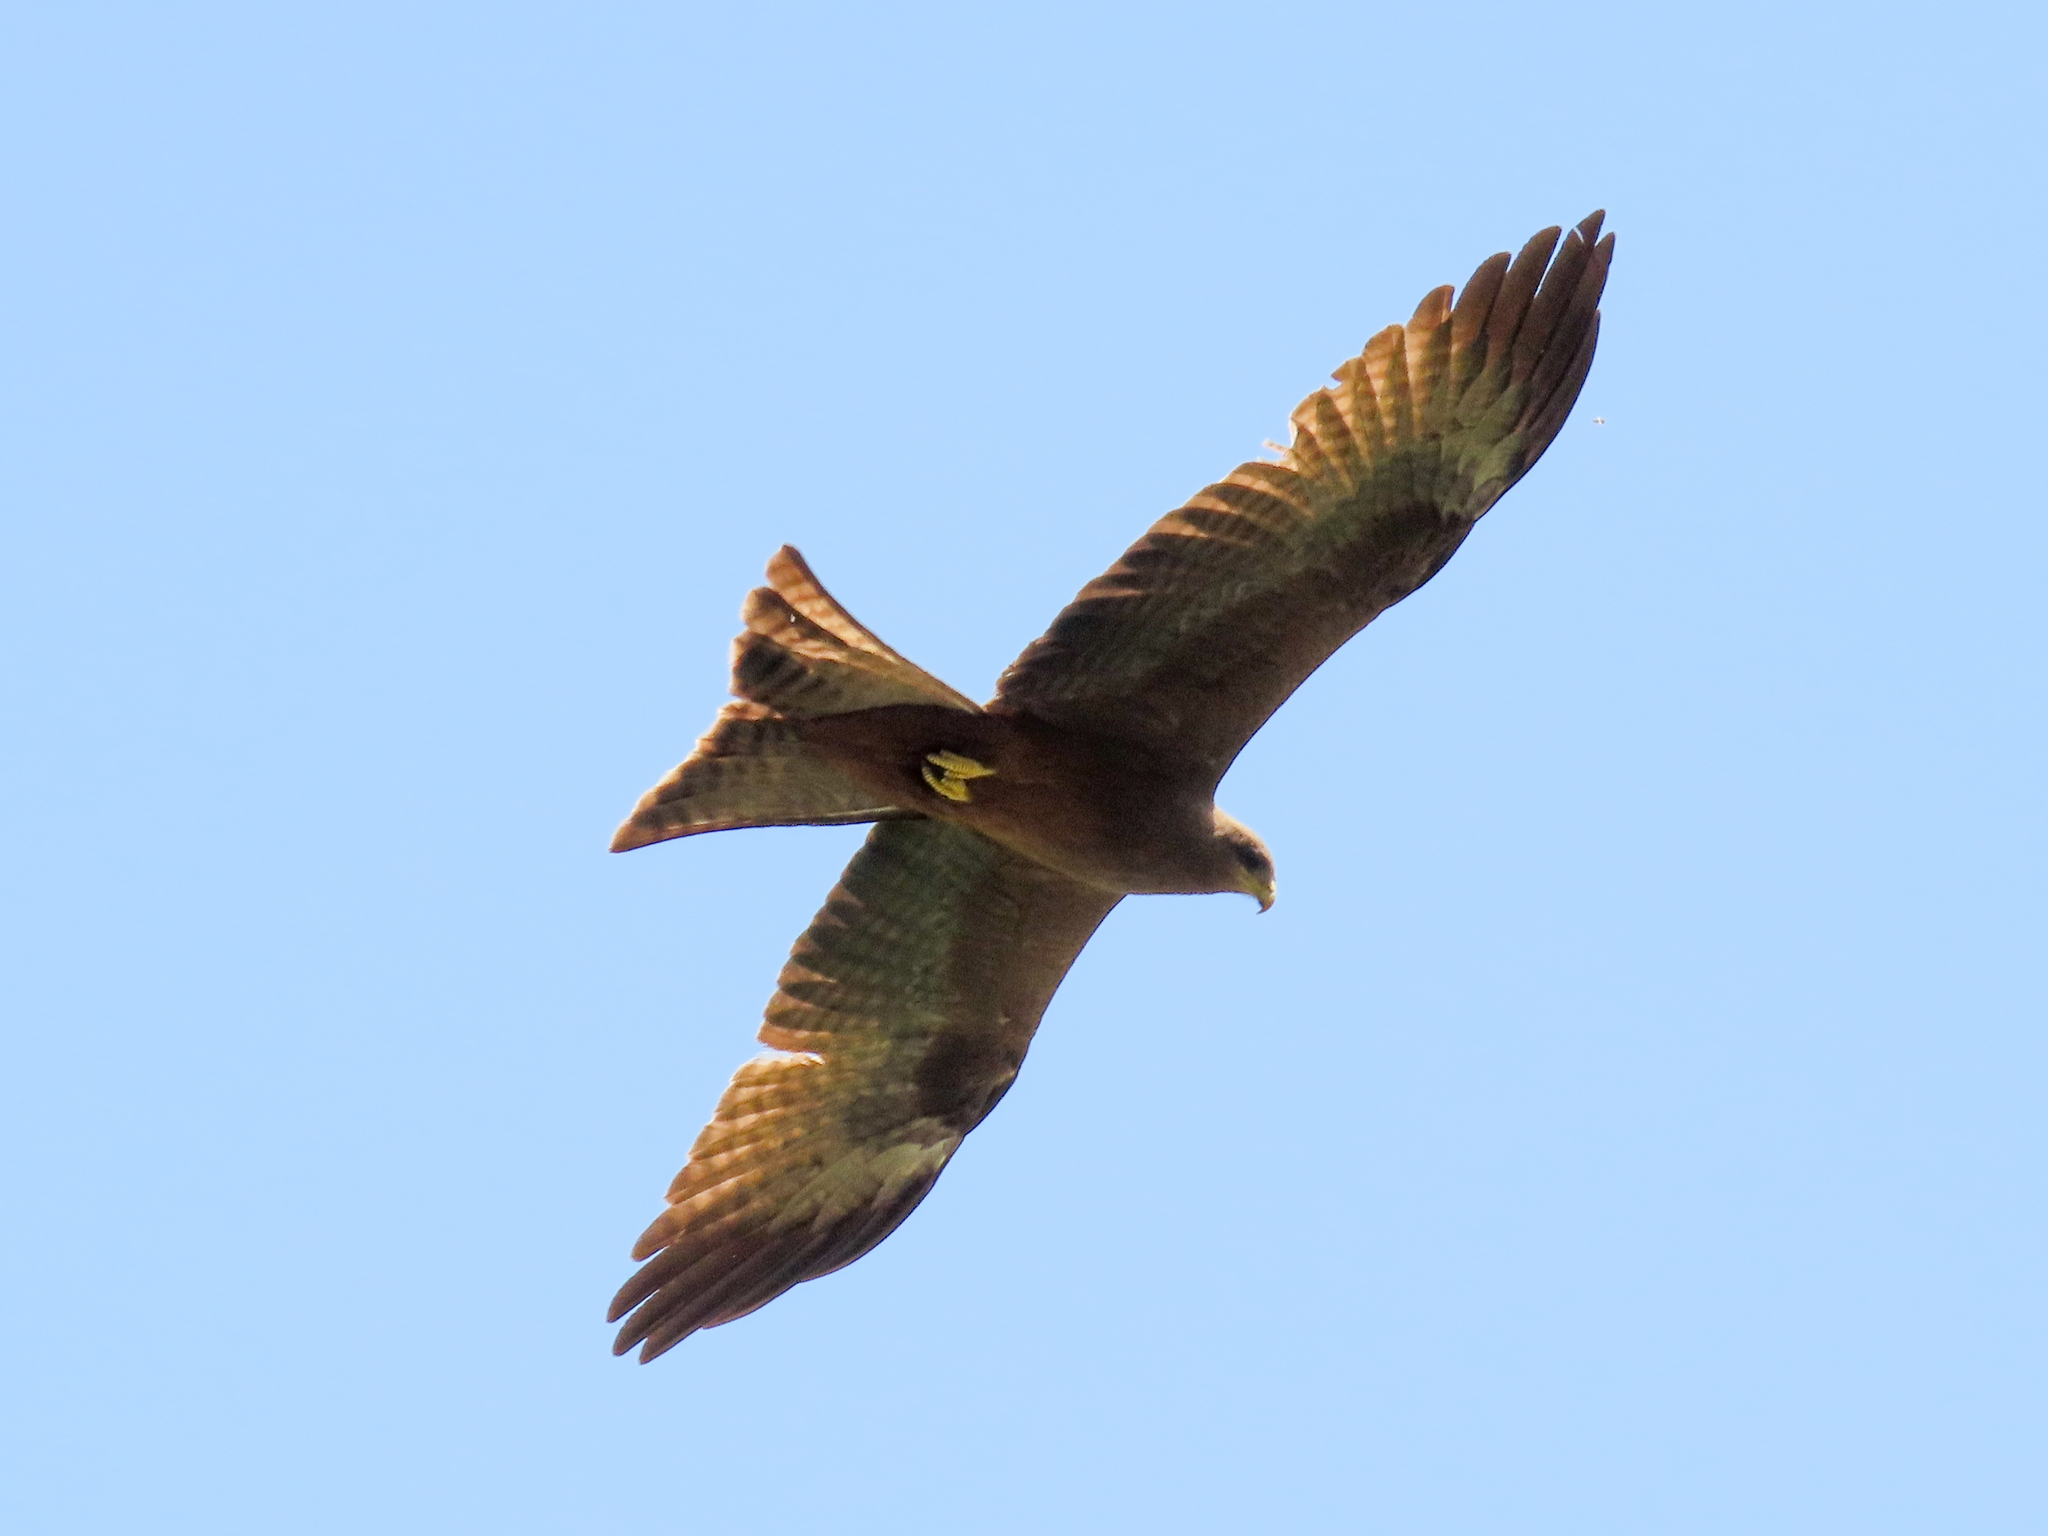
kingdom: Animalia
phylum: Chordata
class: Aves
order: Accipitriformes
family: Accipitridae
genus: Milvus
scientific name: Milvus migrans
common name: Black kite
